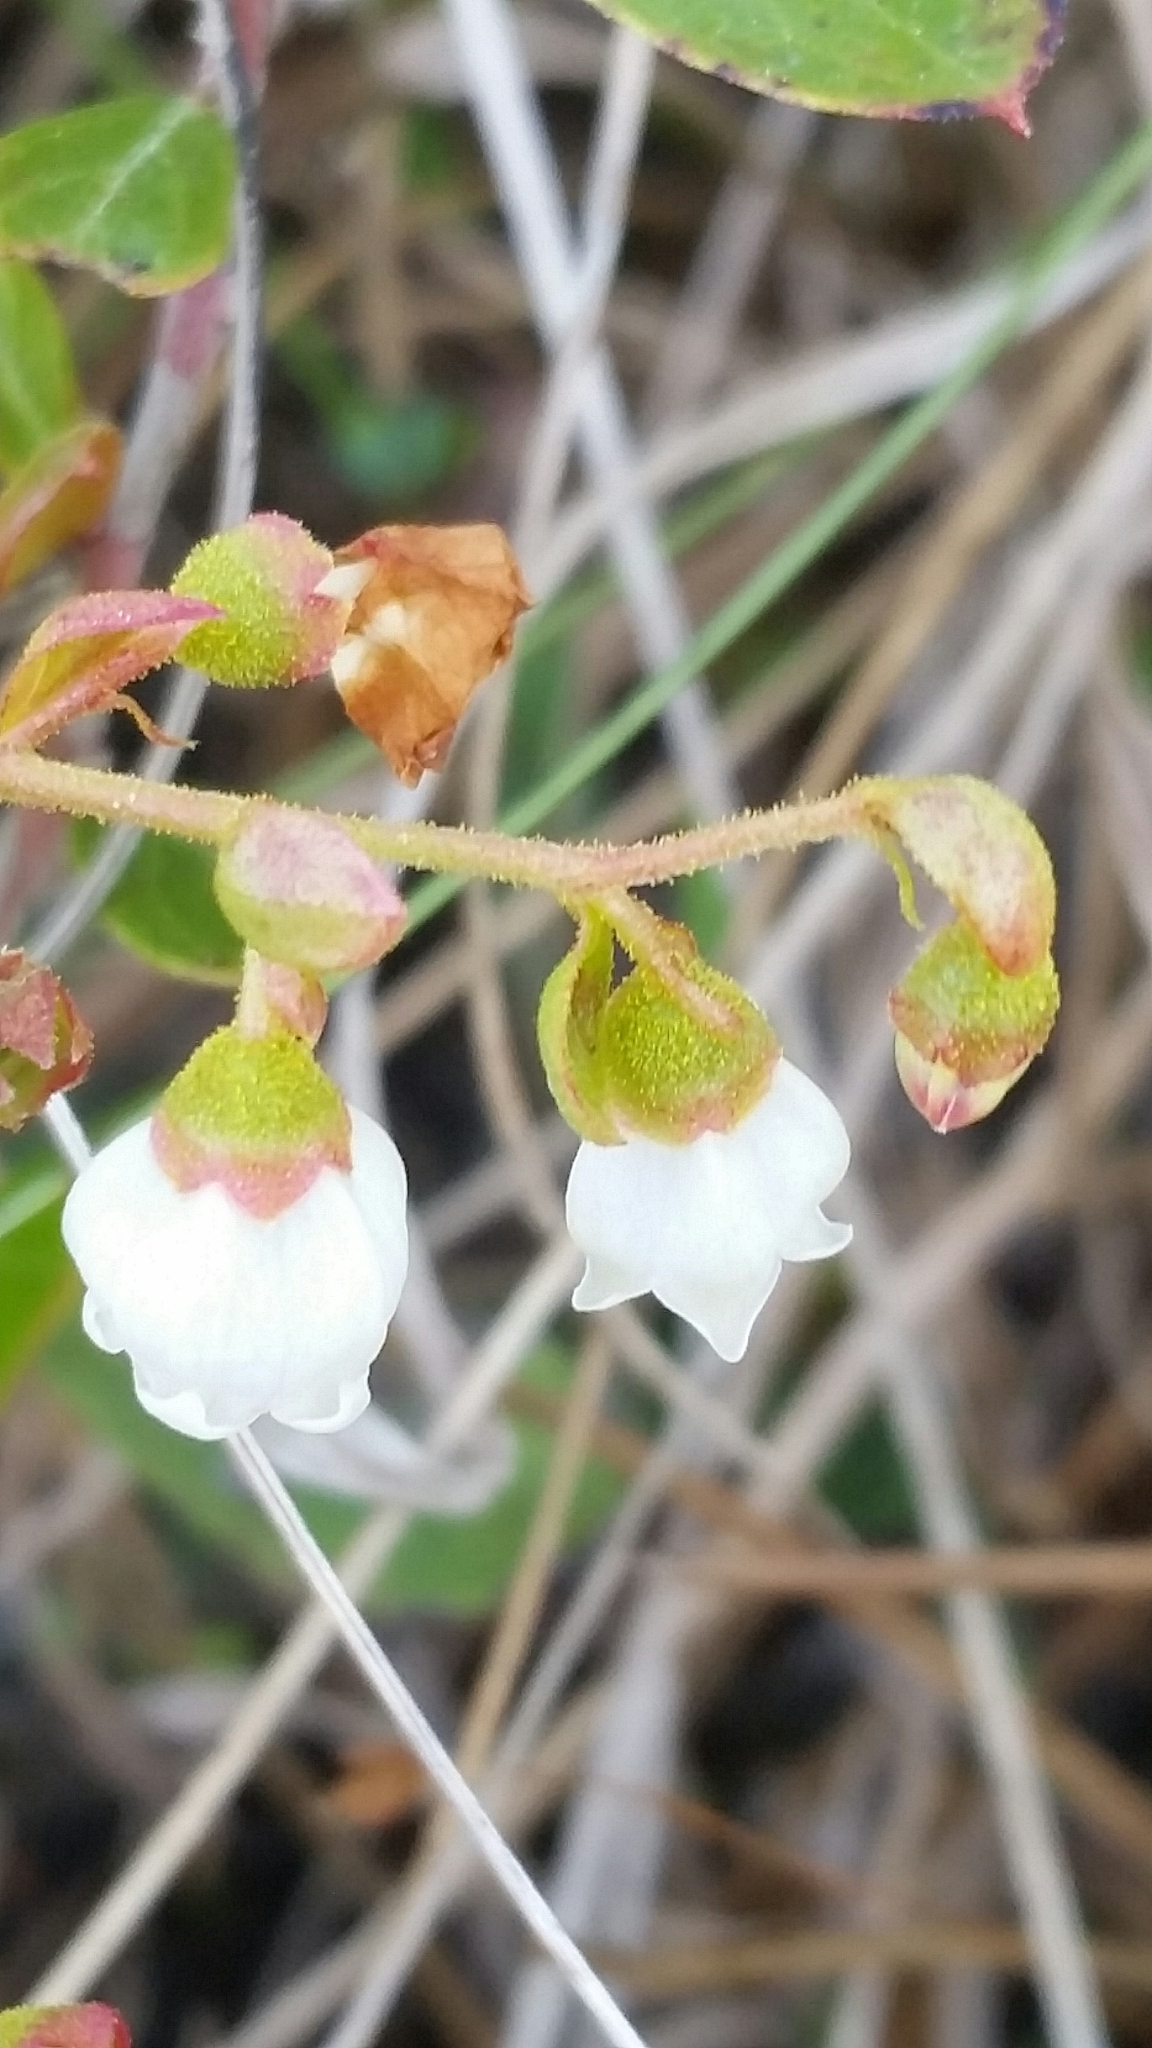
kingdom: Plantae
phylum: Tracheophyta
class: Magnoliopsida
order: Ericales
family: Ericaceae
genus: Gaylussacia
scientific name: Gaylussacia dumosa
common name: Dwarf huckleberry
